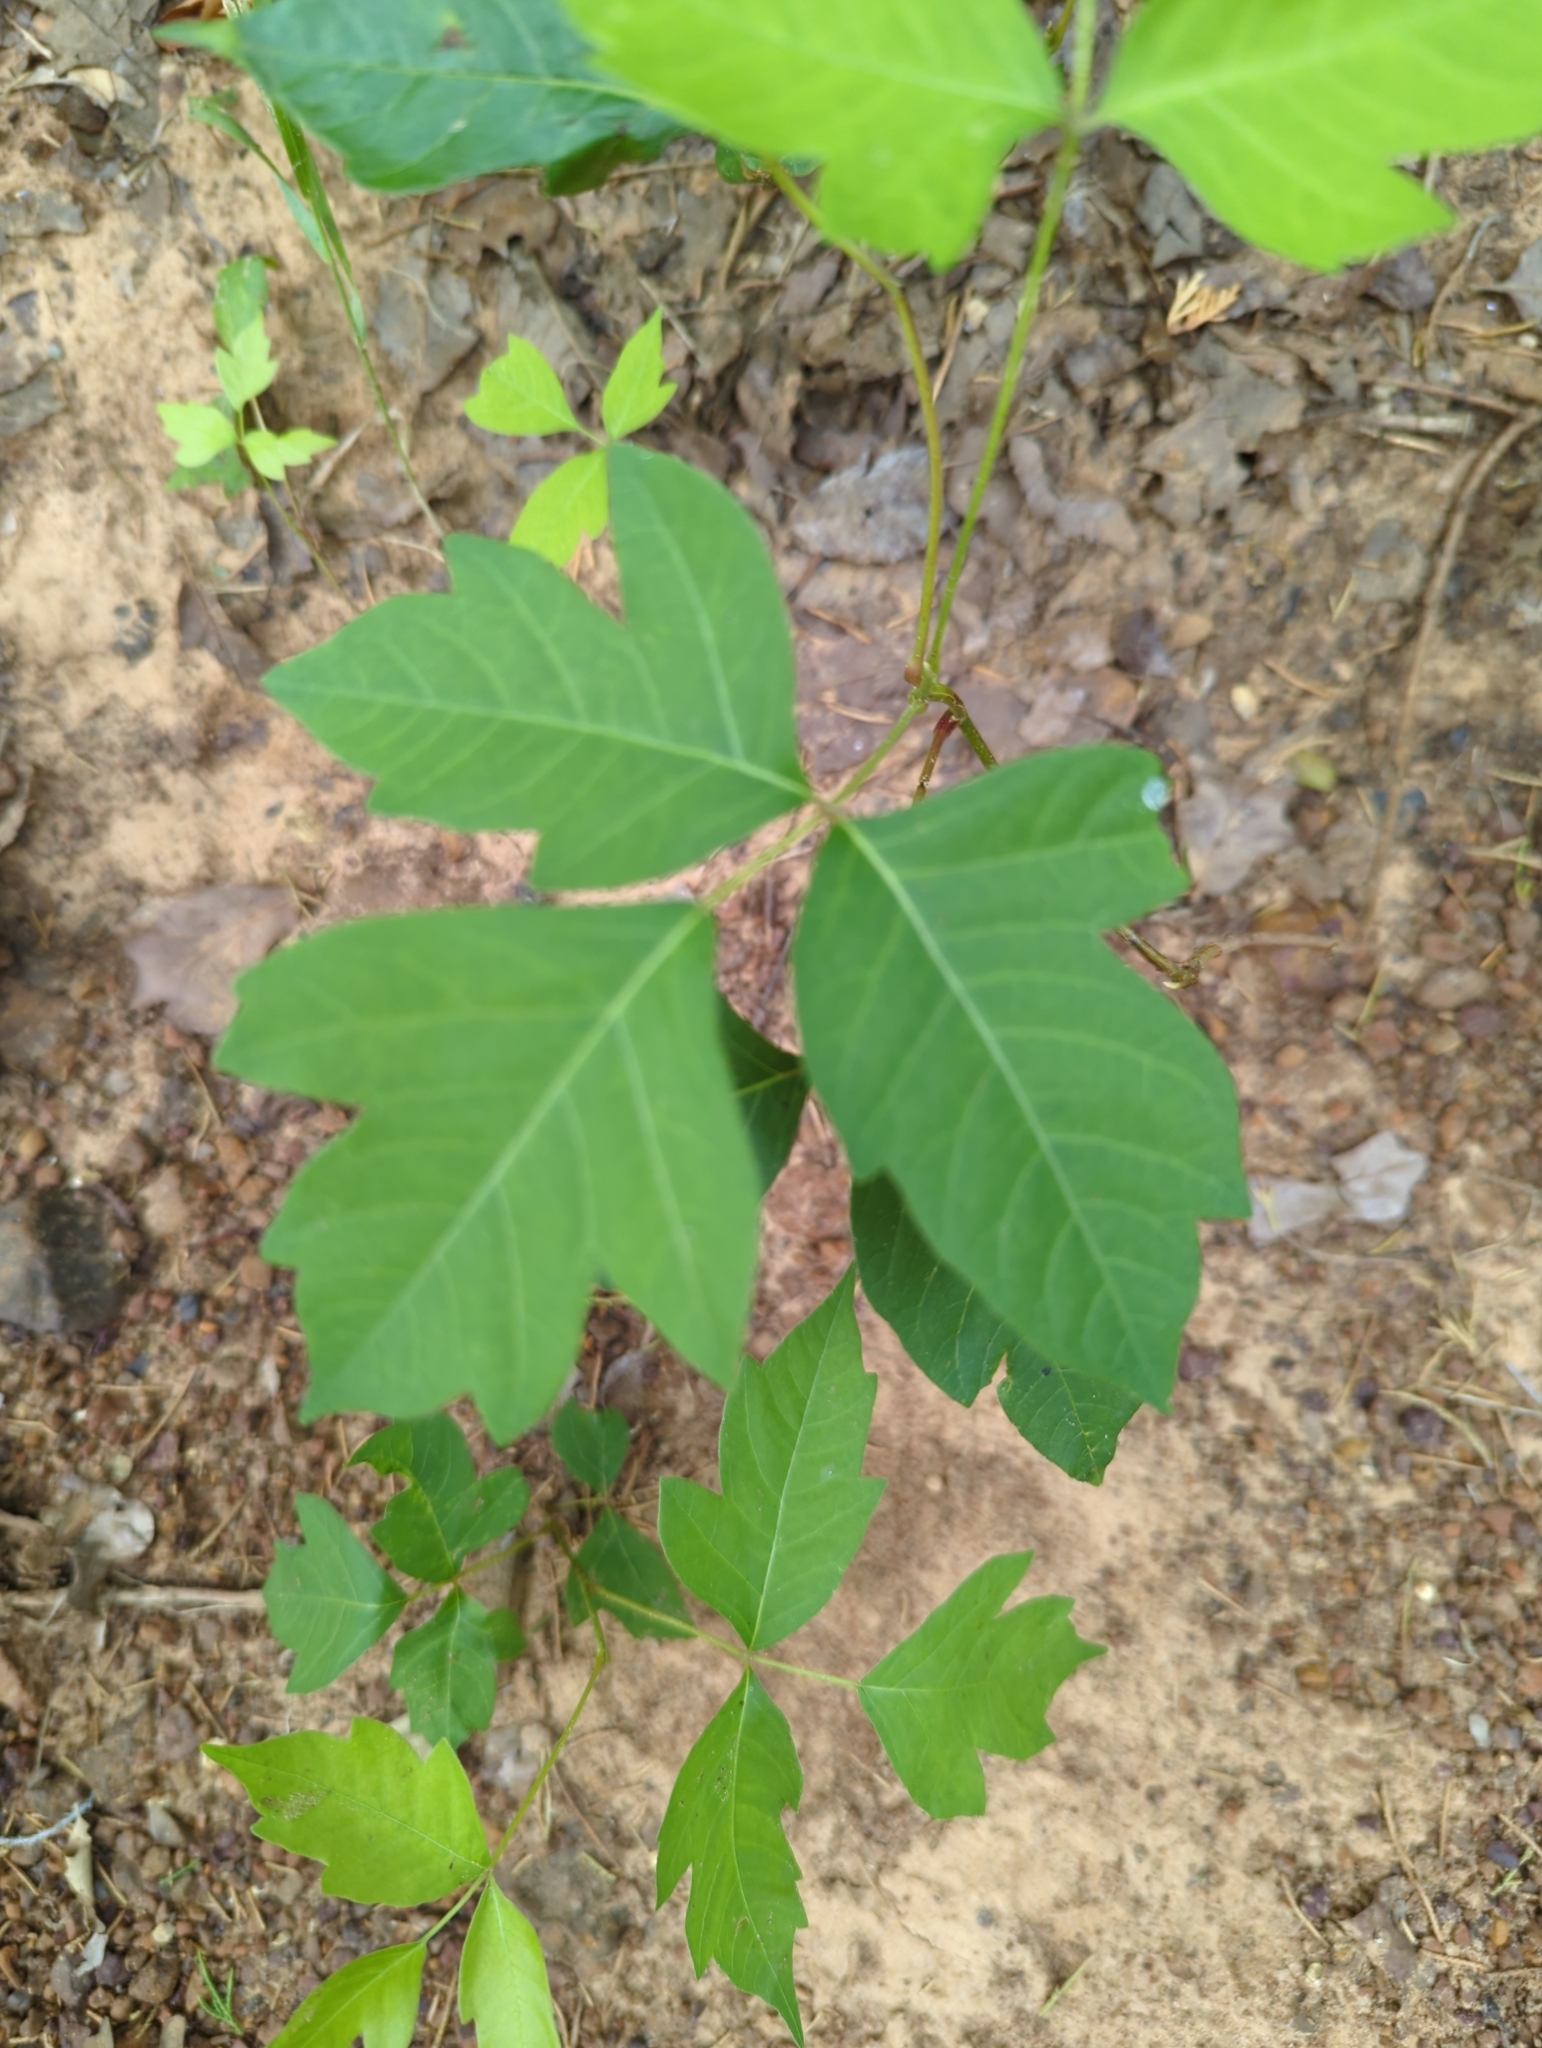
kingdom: Plantae
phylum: Tracheophyta
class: Magnoliopsida
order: Sapindales
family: Anacardiaceae
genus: Toxicodendron
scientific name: Toxicodendron radicans
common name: Poison ivy
